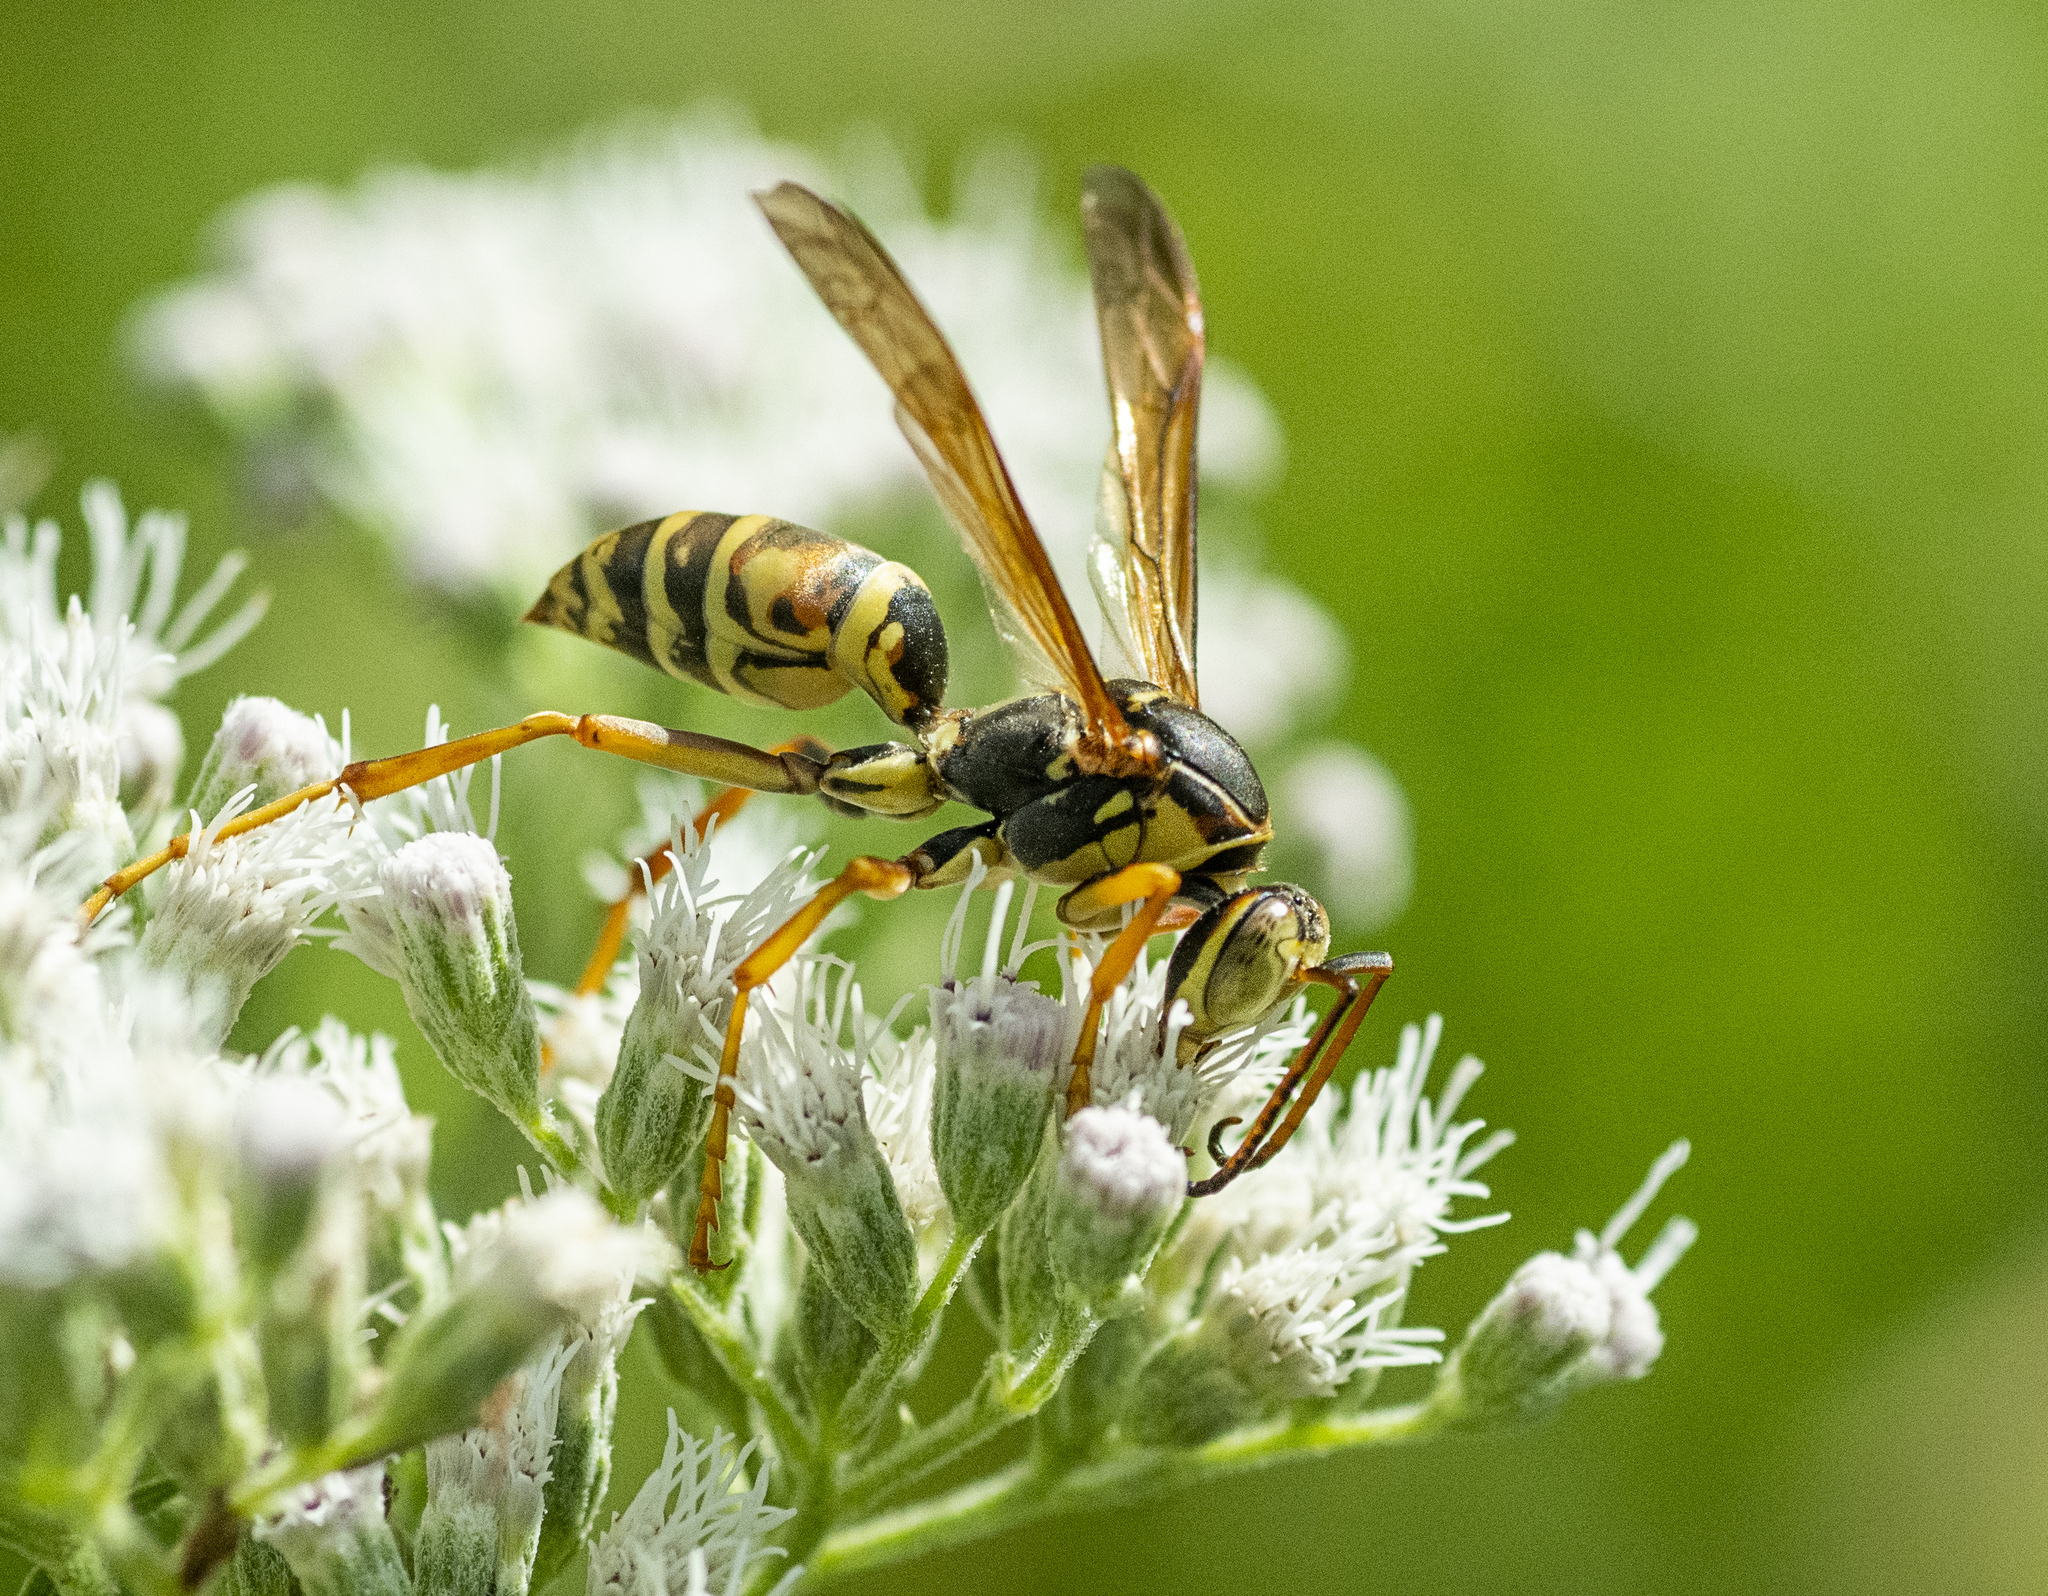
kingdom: Animalia
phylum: Arthropoda
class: Insecta
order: Hymenoptera
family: Eumenidae
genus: Polistes
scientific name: Polistes fuscatus
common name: Dark paper wasp
